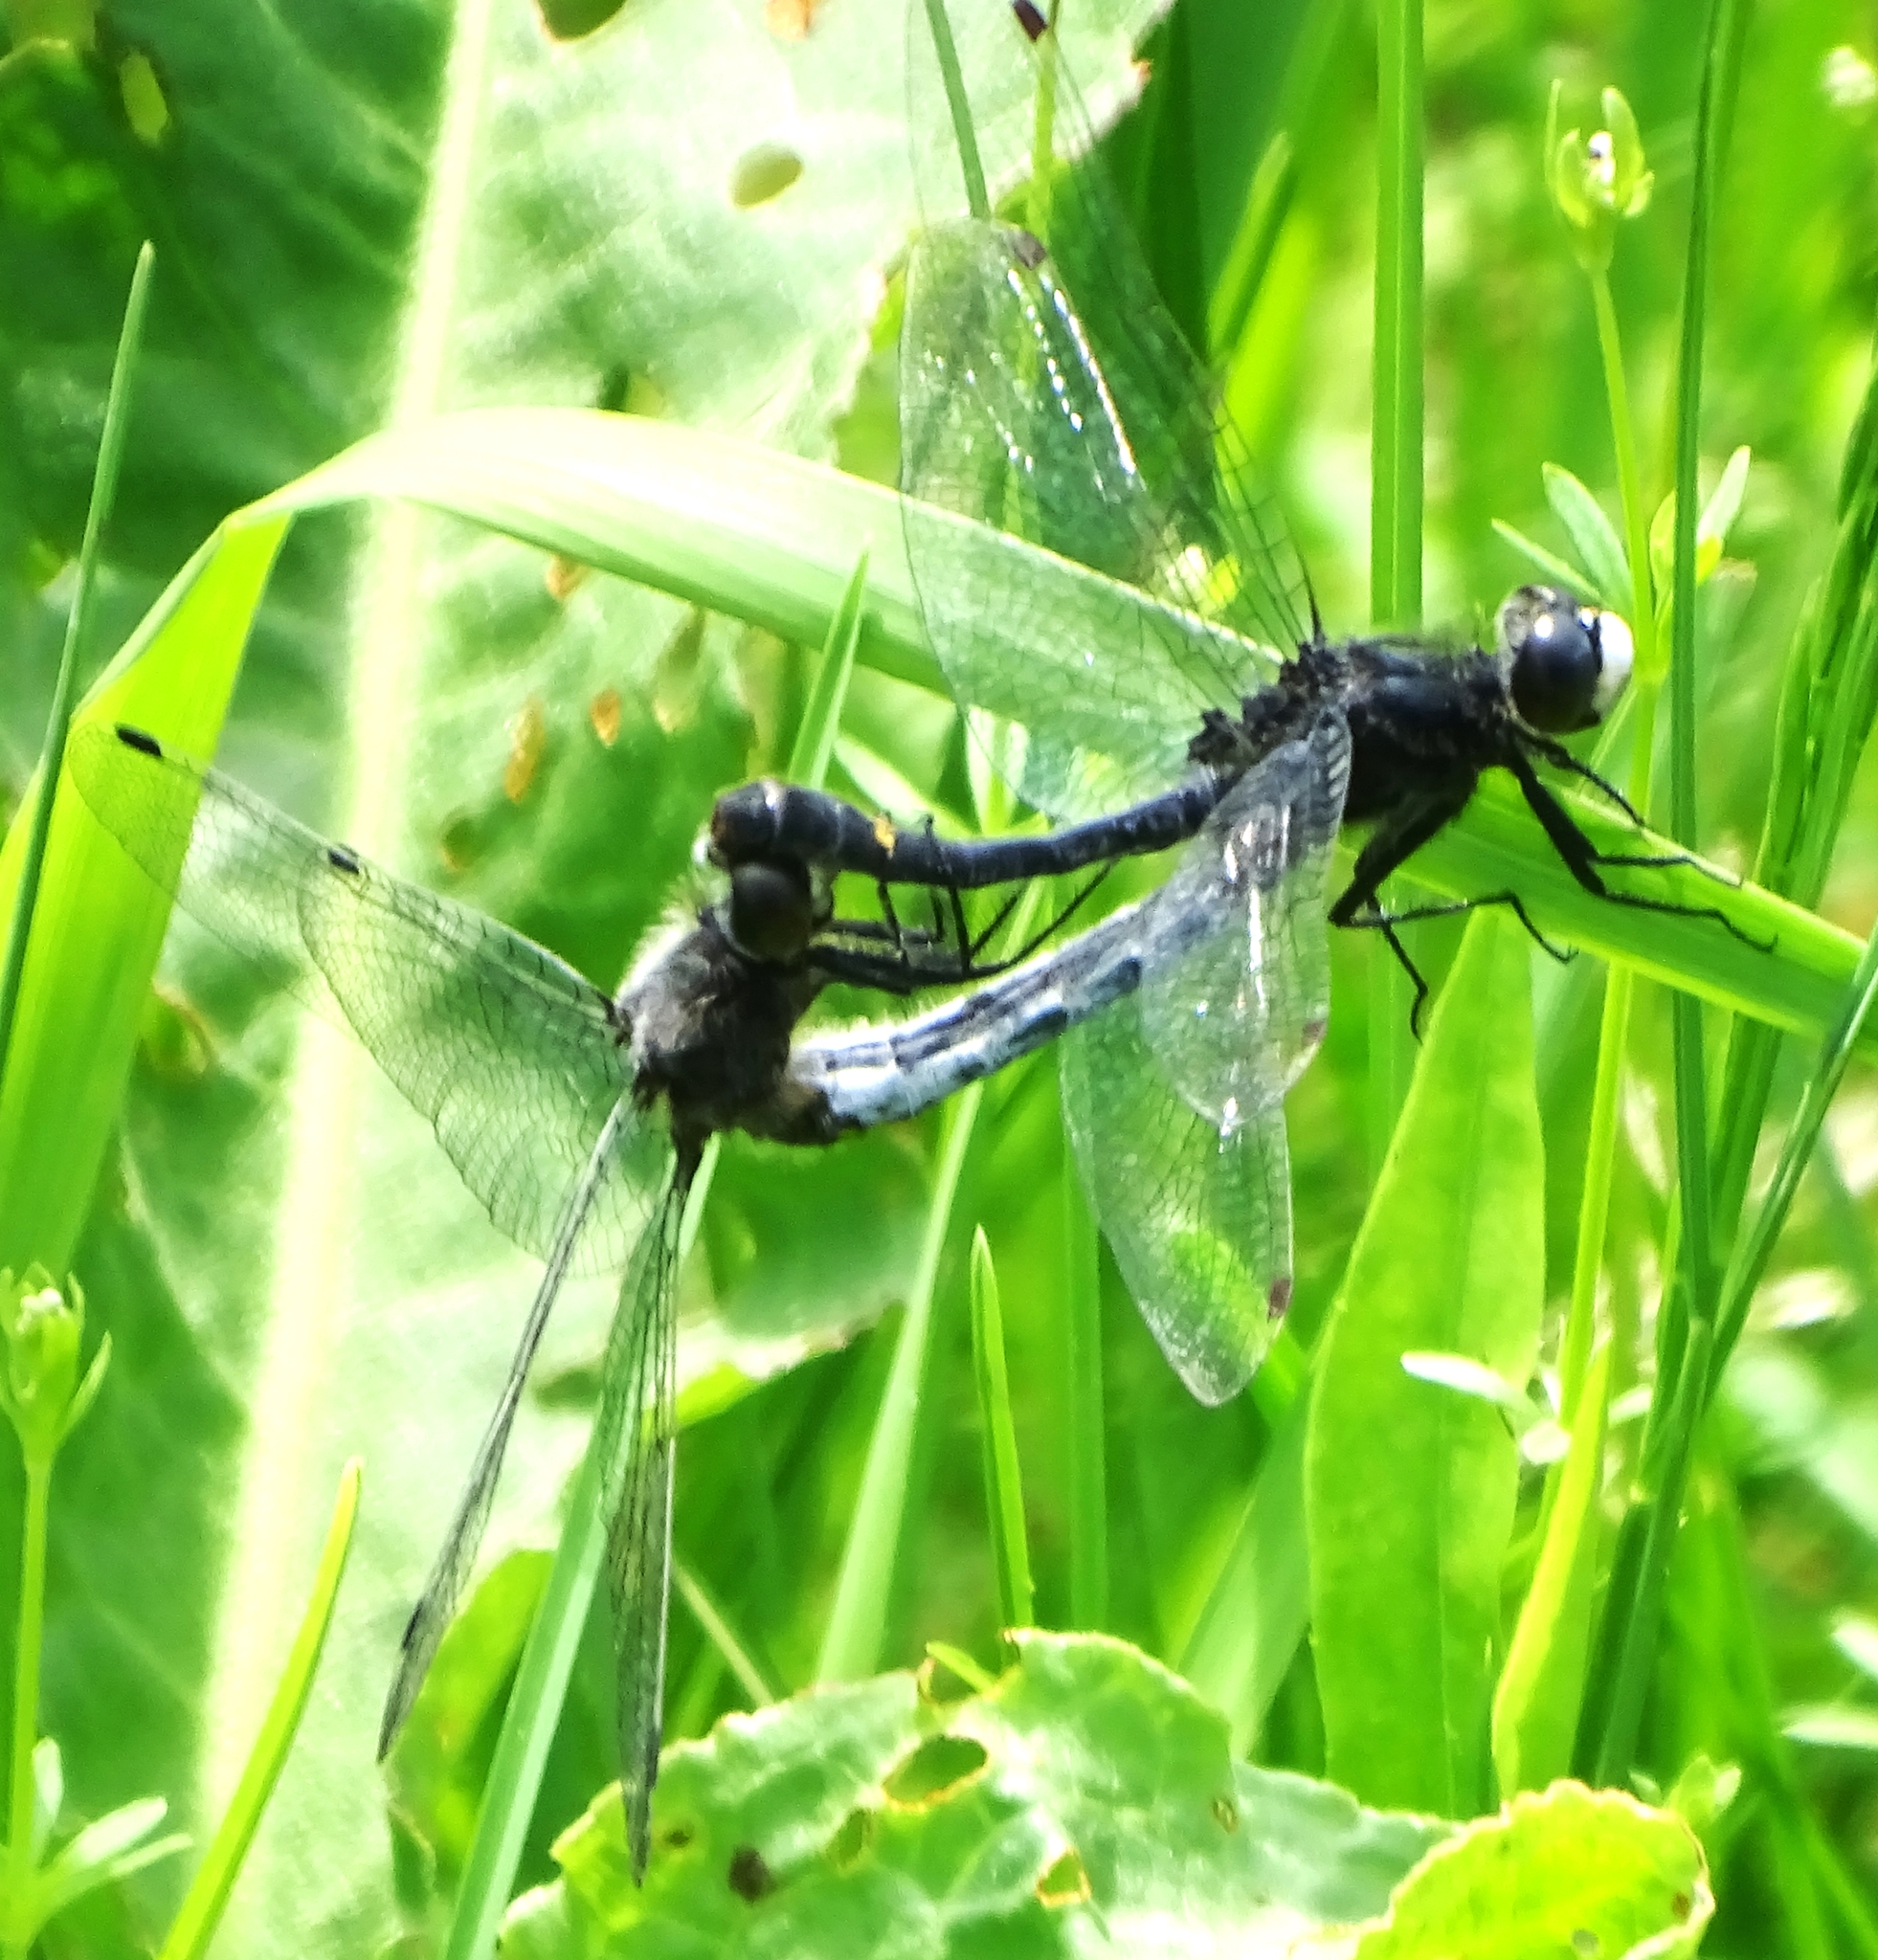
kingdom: Animalia
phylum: Arthropoda
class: Insecta
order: Odonata
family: Libellulidae
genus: Leucorrhinia
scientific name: Leucorrhinia intacta
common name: Dot-tailed whiteface
